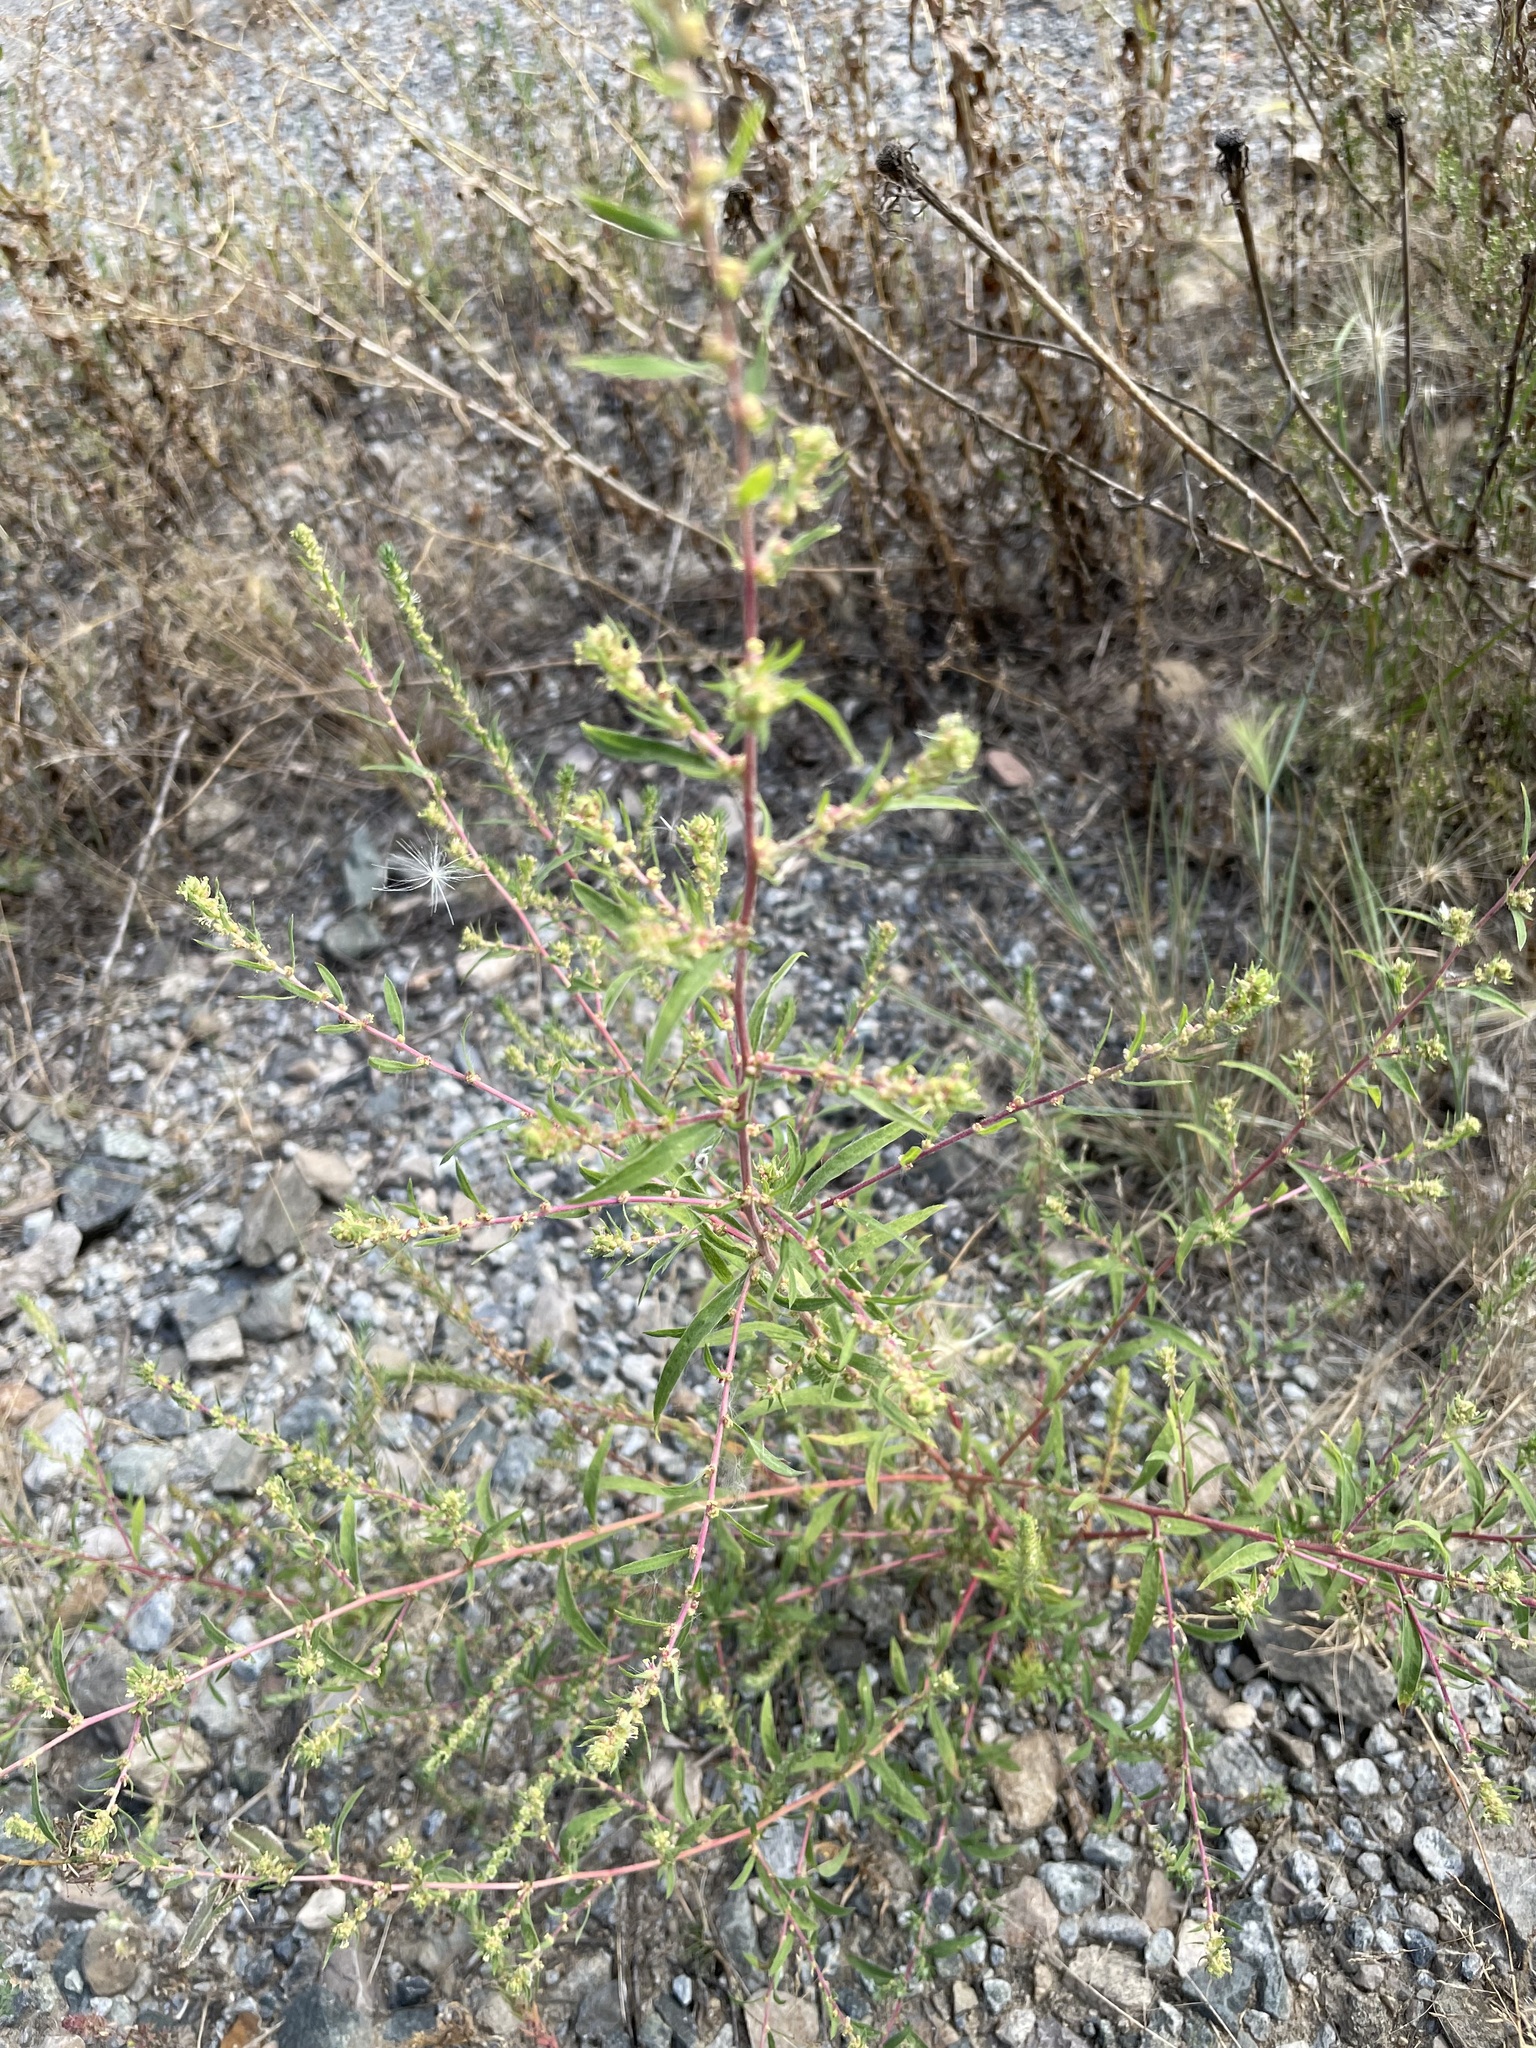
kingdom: Plantae
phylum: Tracheophyta
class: Magnoliopsida
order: Caryophyllales
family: Amaranthaceae
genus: Bassia
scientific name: Bassia scoparia
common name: Belvedere
